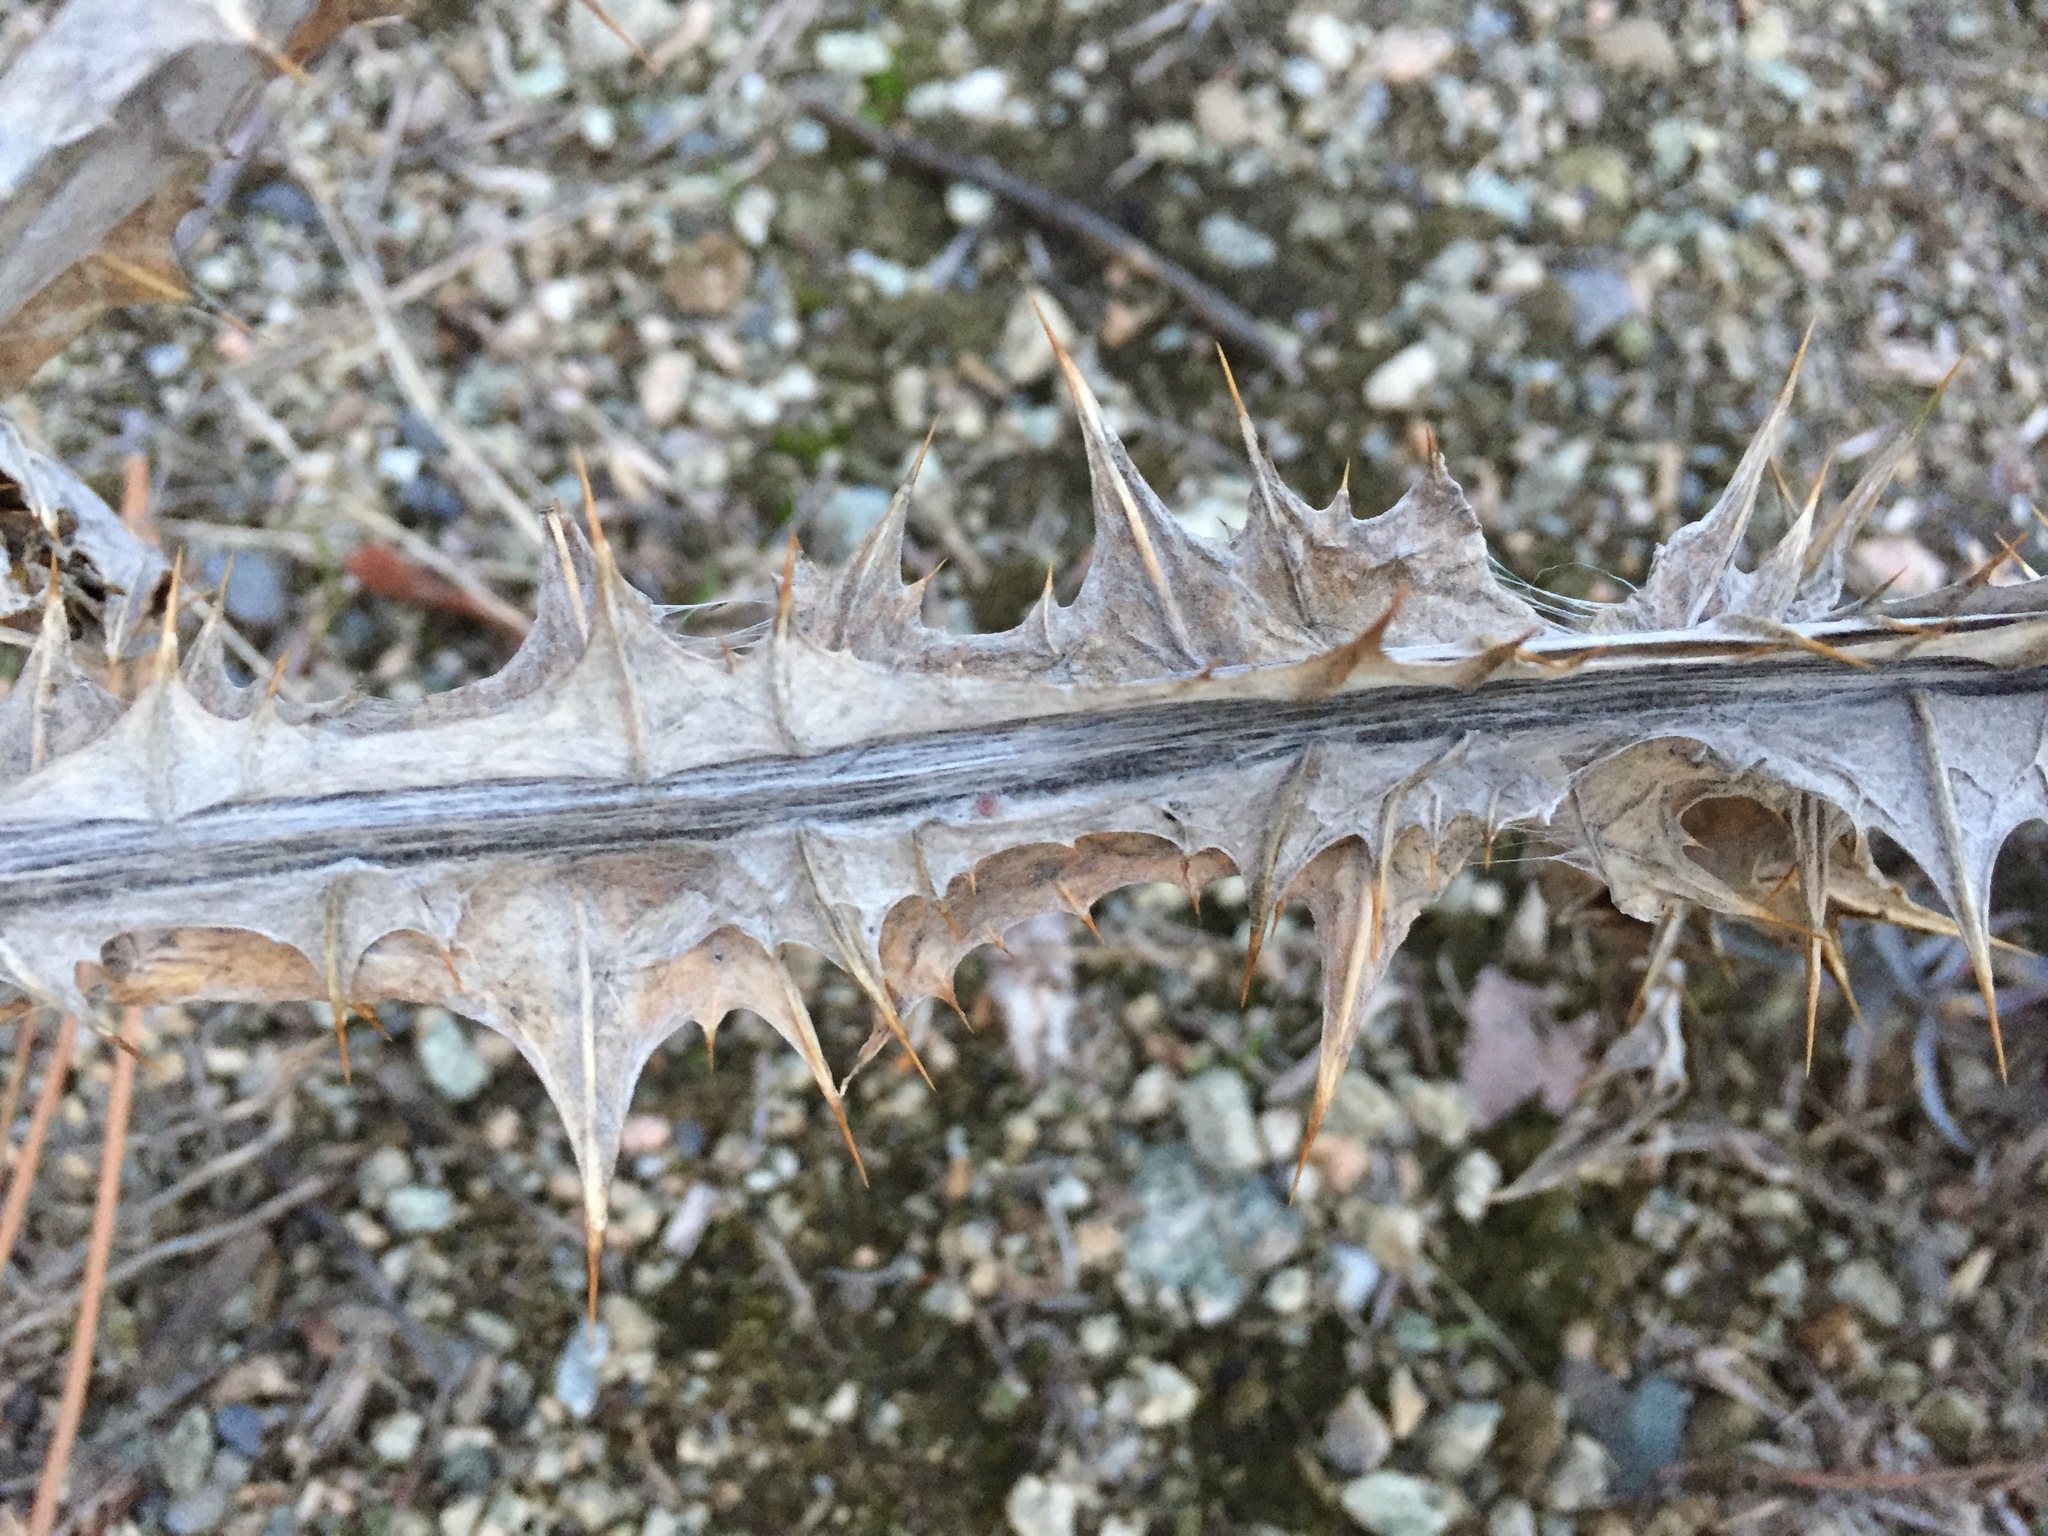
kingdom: Plantae
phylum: Tracheophyta
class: Magnoliopsida
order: Asterales
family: Asteraceae
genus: Onopordum
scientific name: Onopordum acanthium
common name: Scotch thistle
